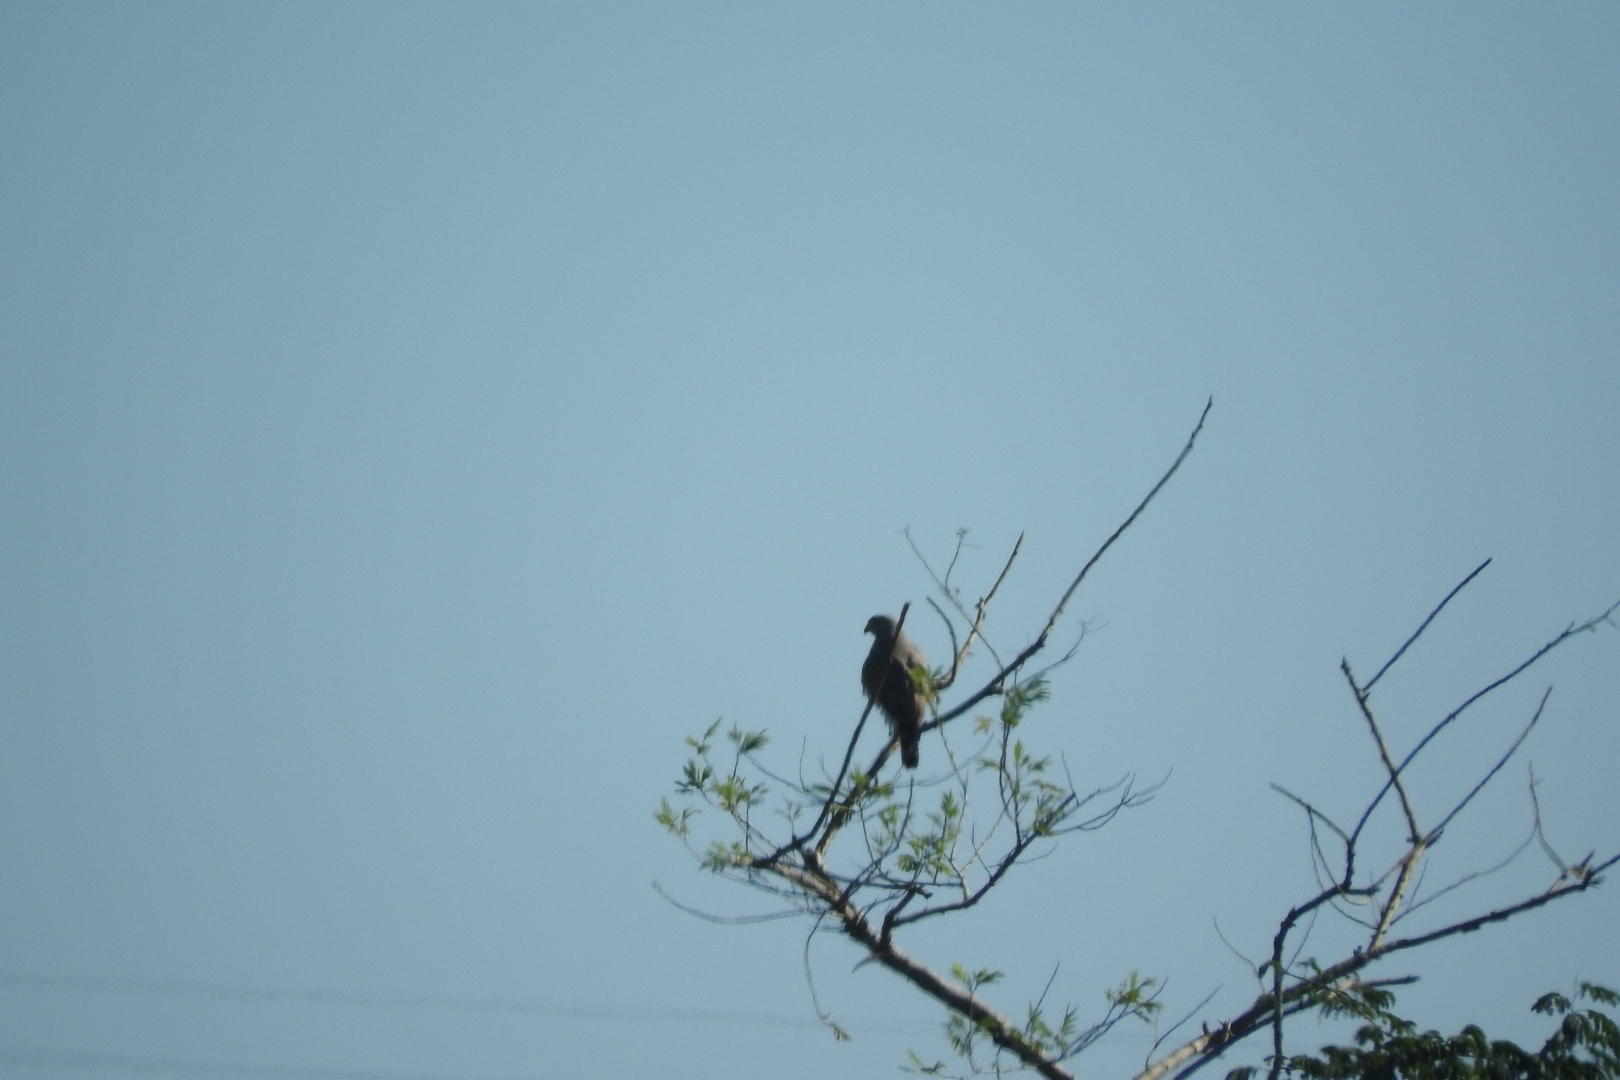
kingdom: Animalia
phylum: Chordata
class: Aves
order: Accipitriformes
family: Accipitridae
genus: Rupornis
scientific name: Rupornis magnirostris
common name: Roadside hawk
